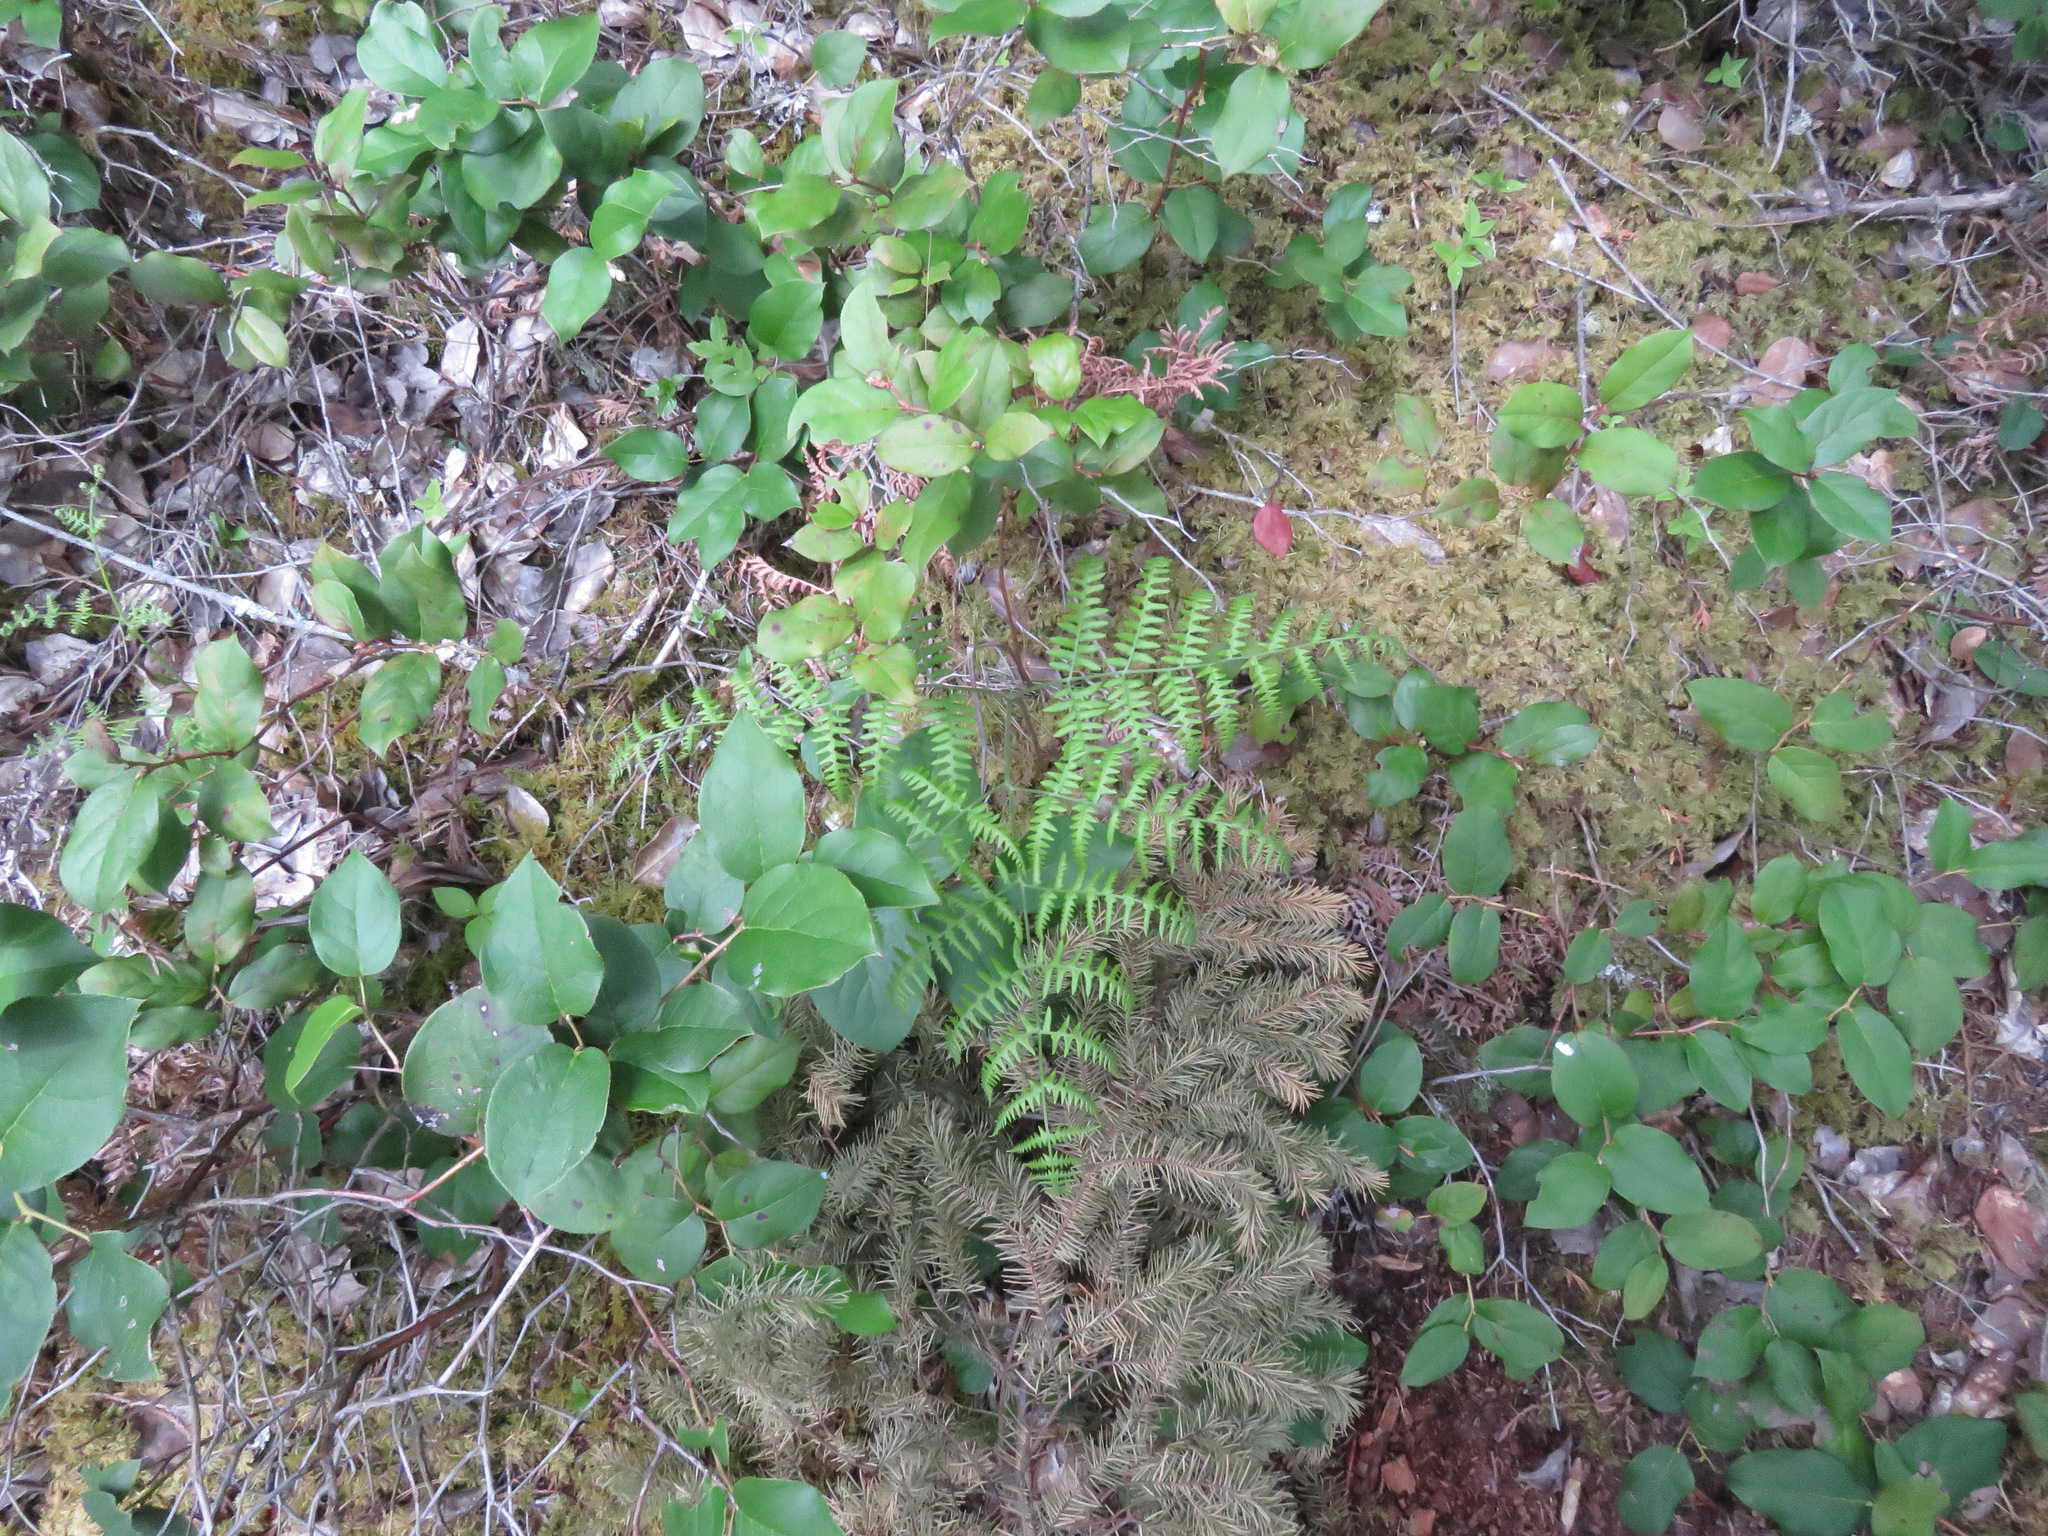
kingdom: Plantae
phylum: Tracheophyta
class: Polypodiopsida
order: Polypodiales
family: Dennstaedtiaceae
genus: Pteridium
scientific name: Pteridium aquilinum
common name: Bracken
